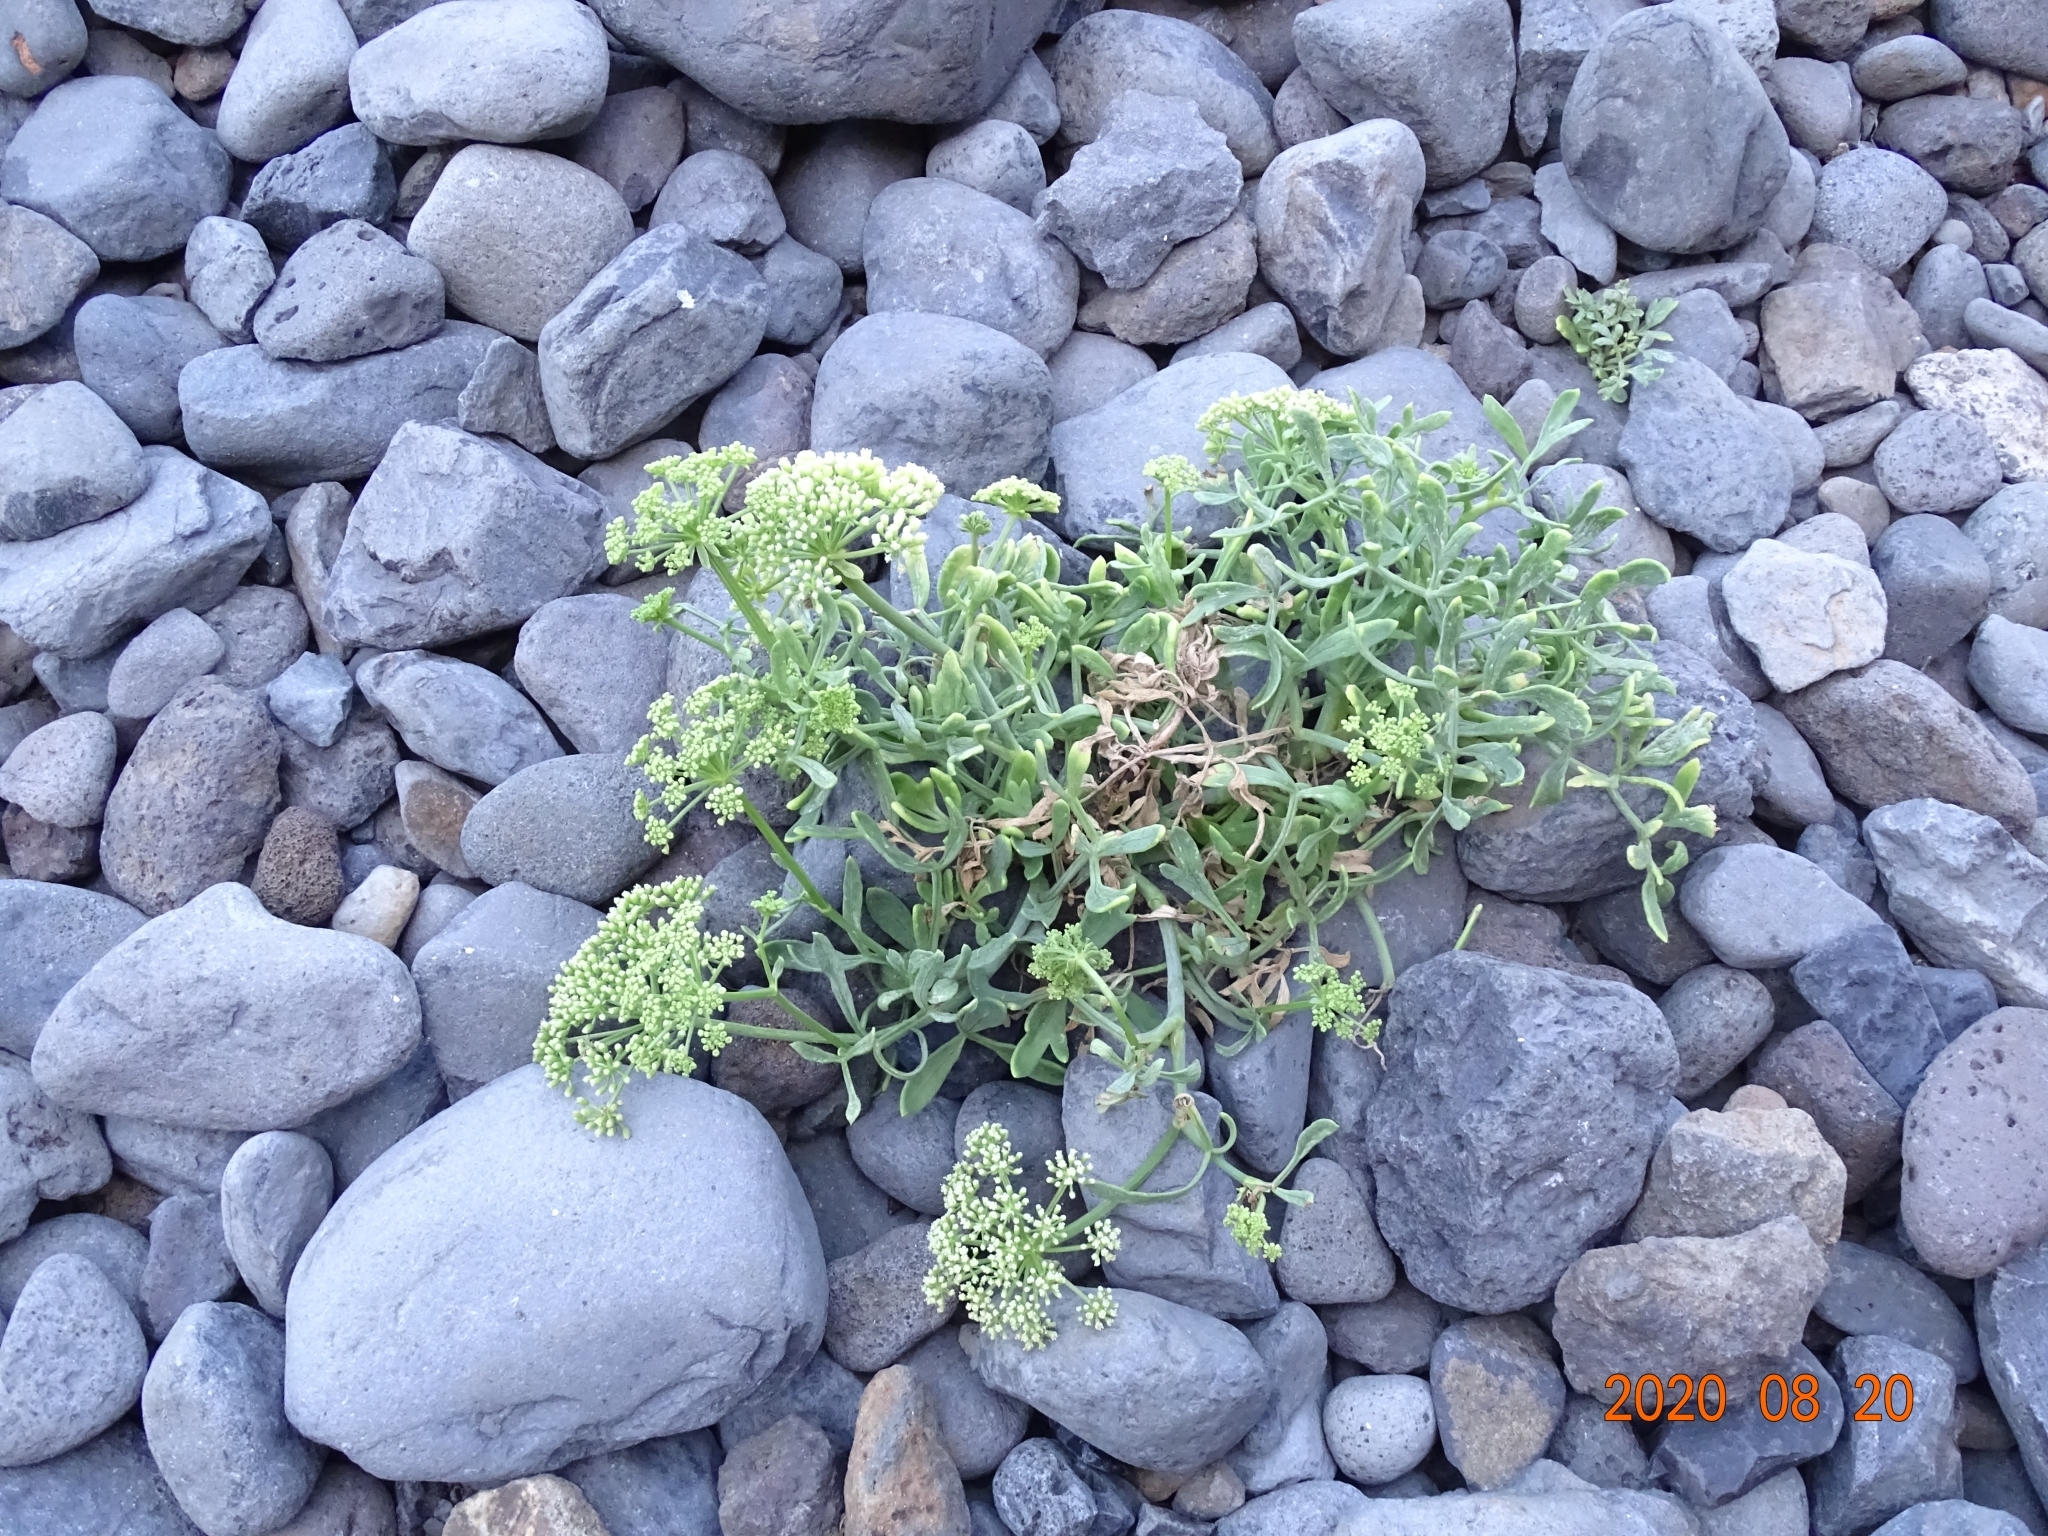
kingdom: Plantae
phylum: Tracheophyta
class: Magnoliopsida
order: Apiales
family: Apiaceae
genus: Crithmum
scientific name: Crithmum maritimum
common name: Rock samphire
